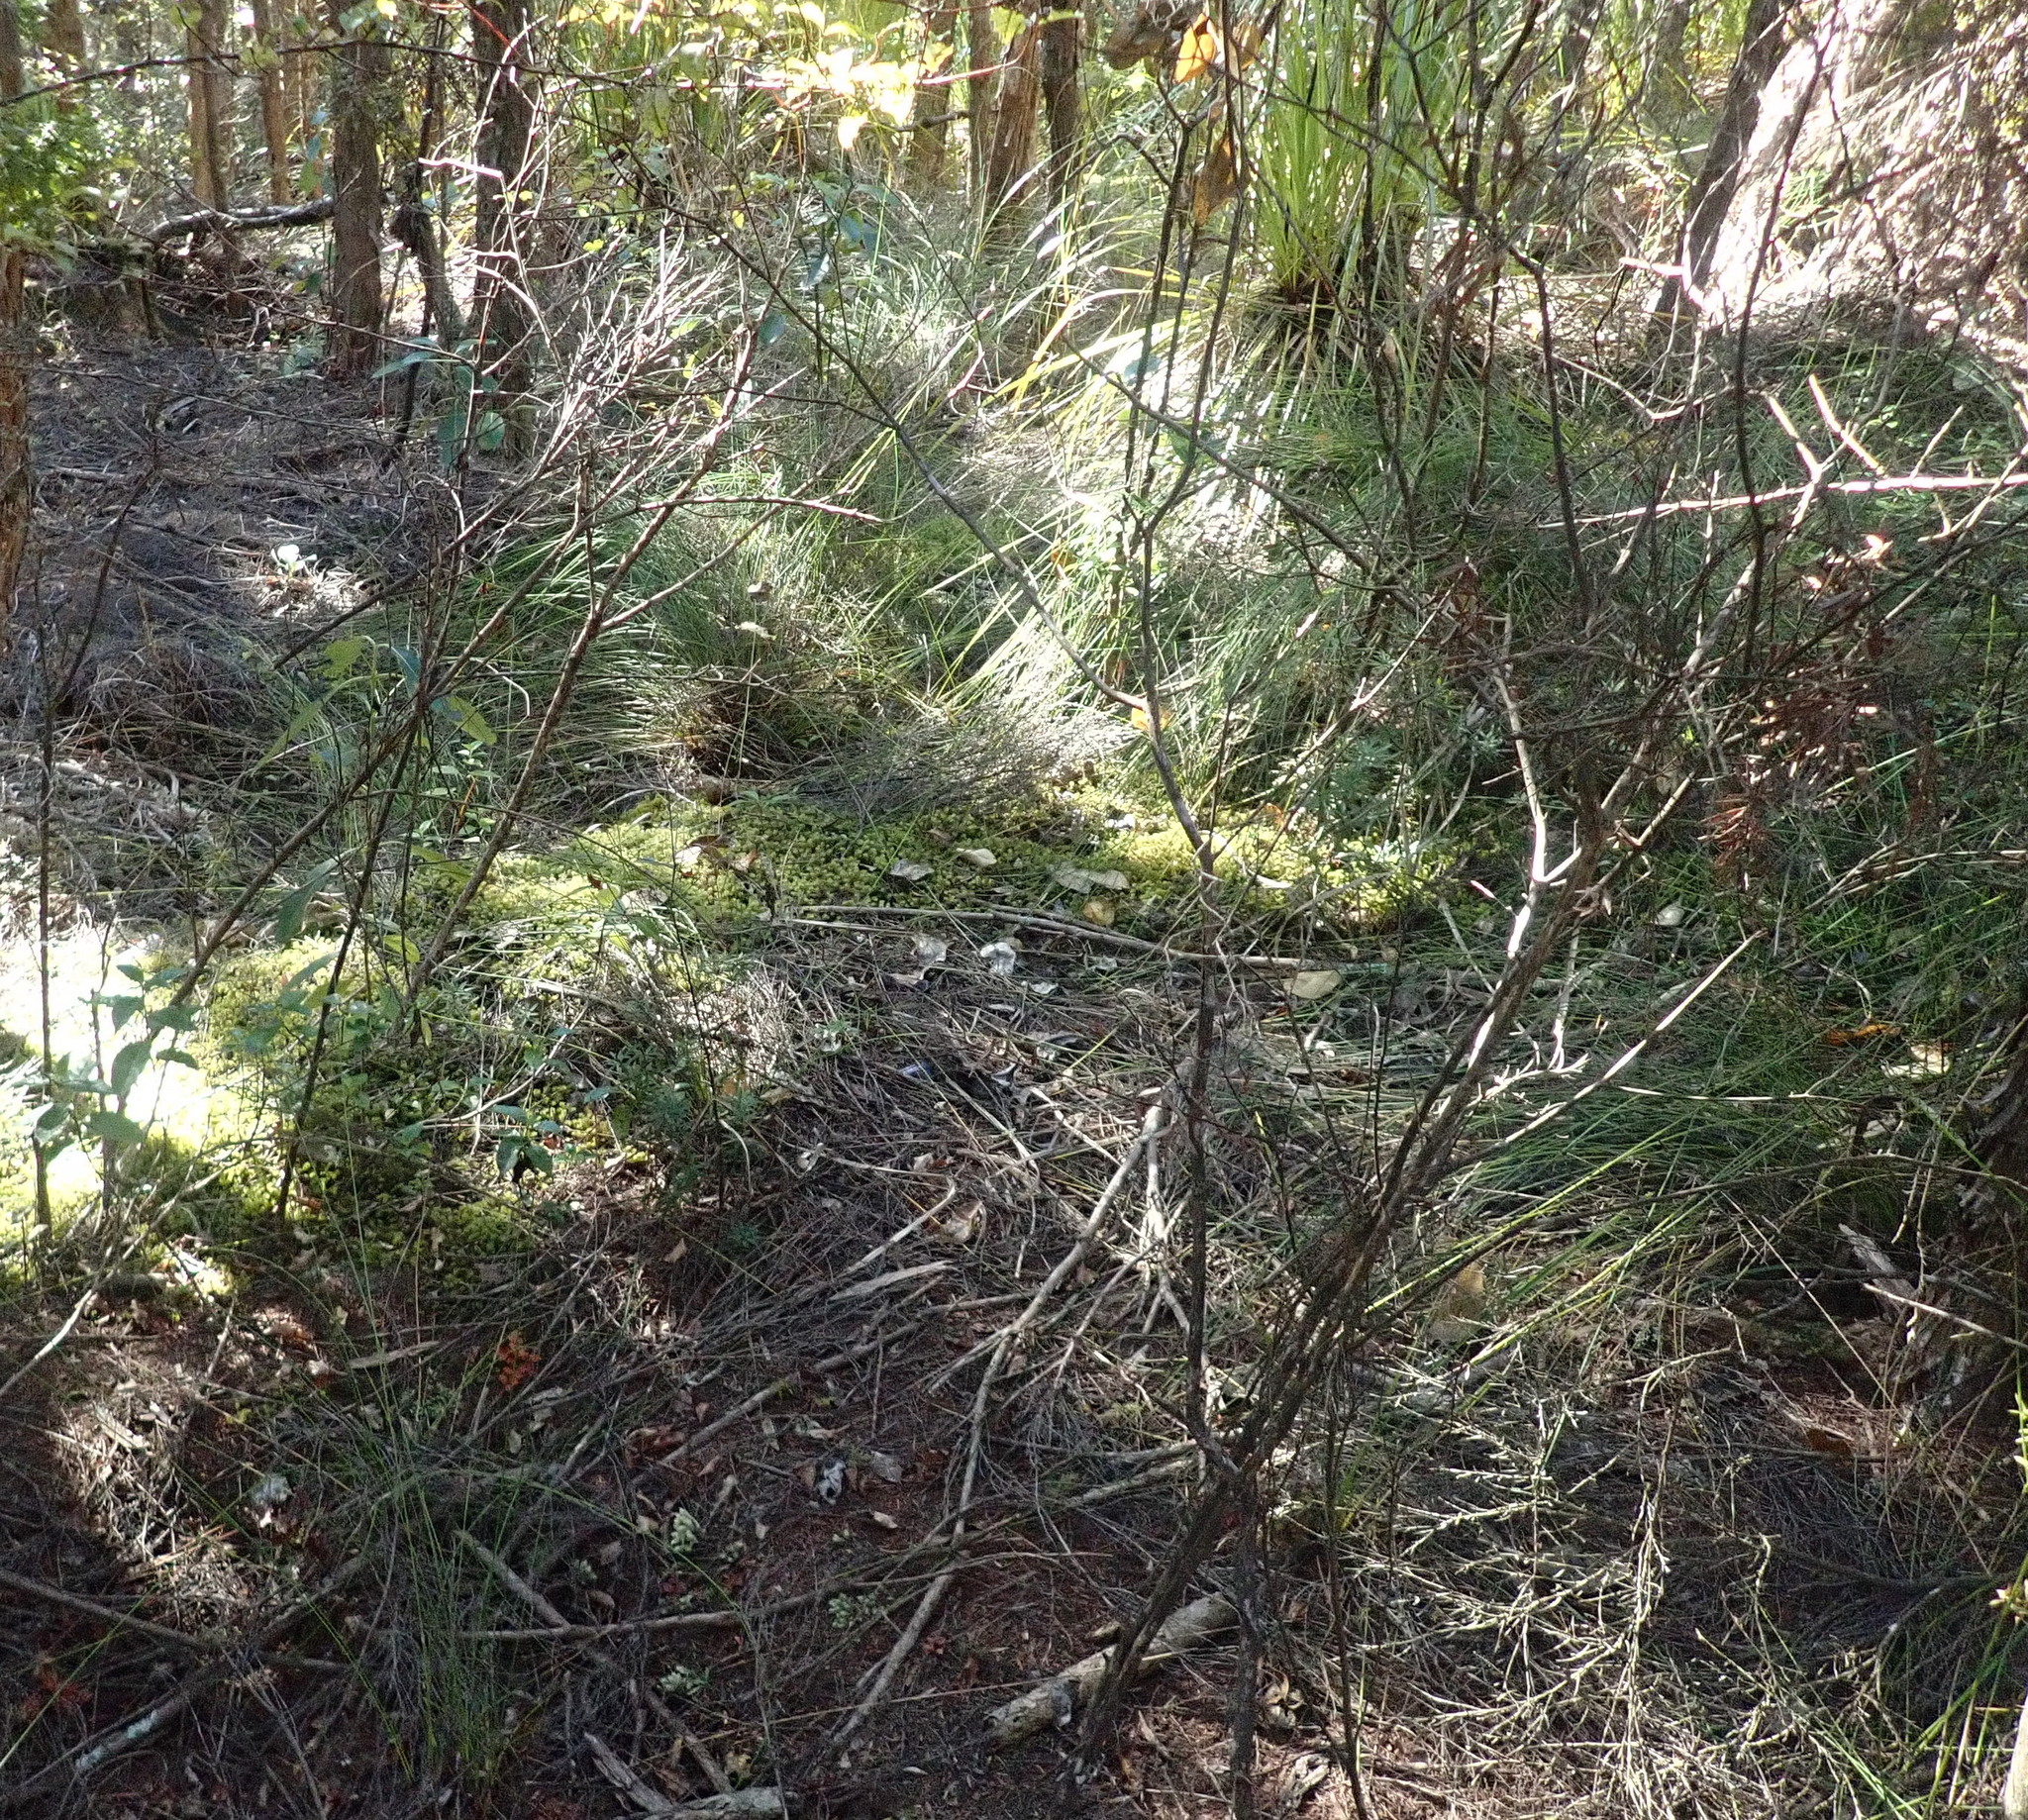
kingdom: Plantae
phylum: Bryophyta
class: Bryopsida
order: Ptychomniales
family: Ptychomniaceae
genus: Ptychomnion
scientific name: Ptychomnion aciculare
